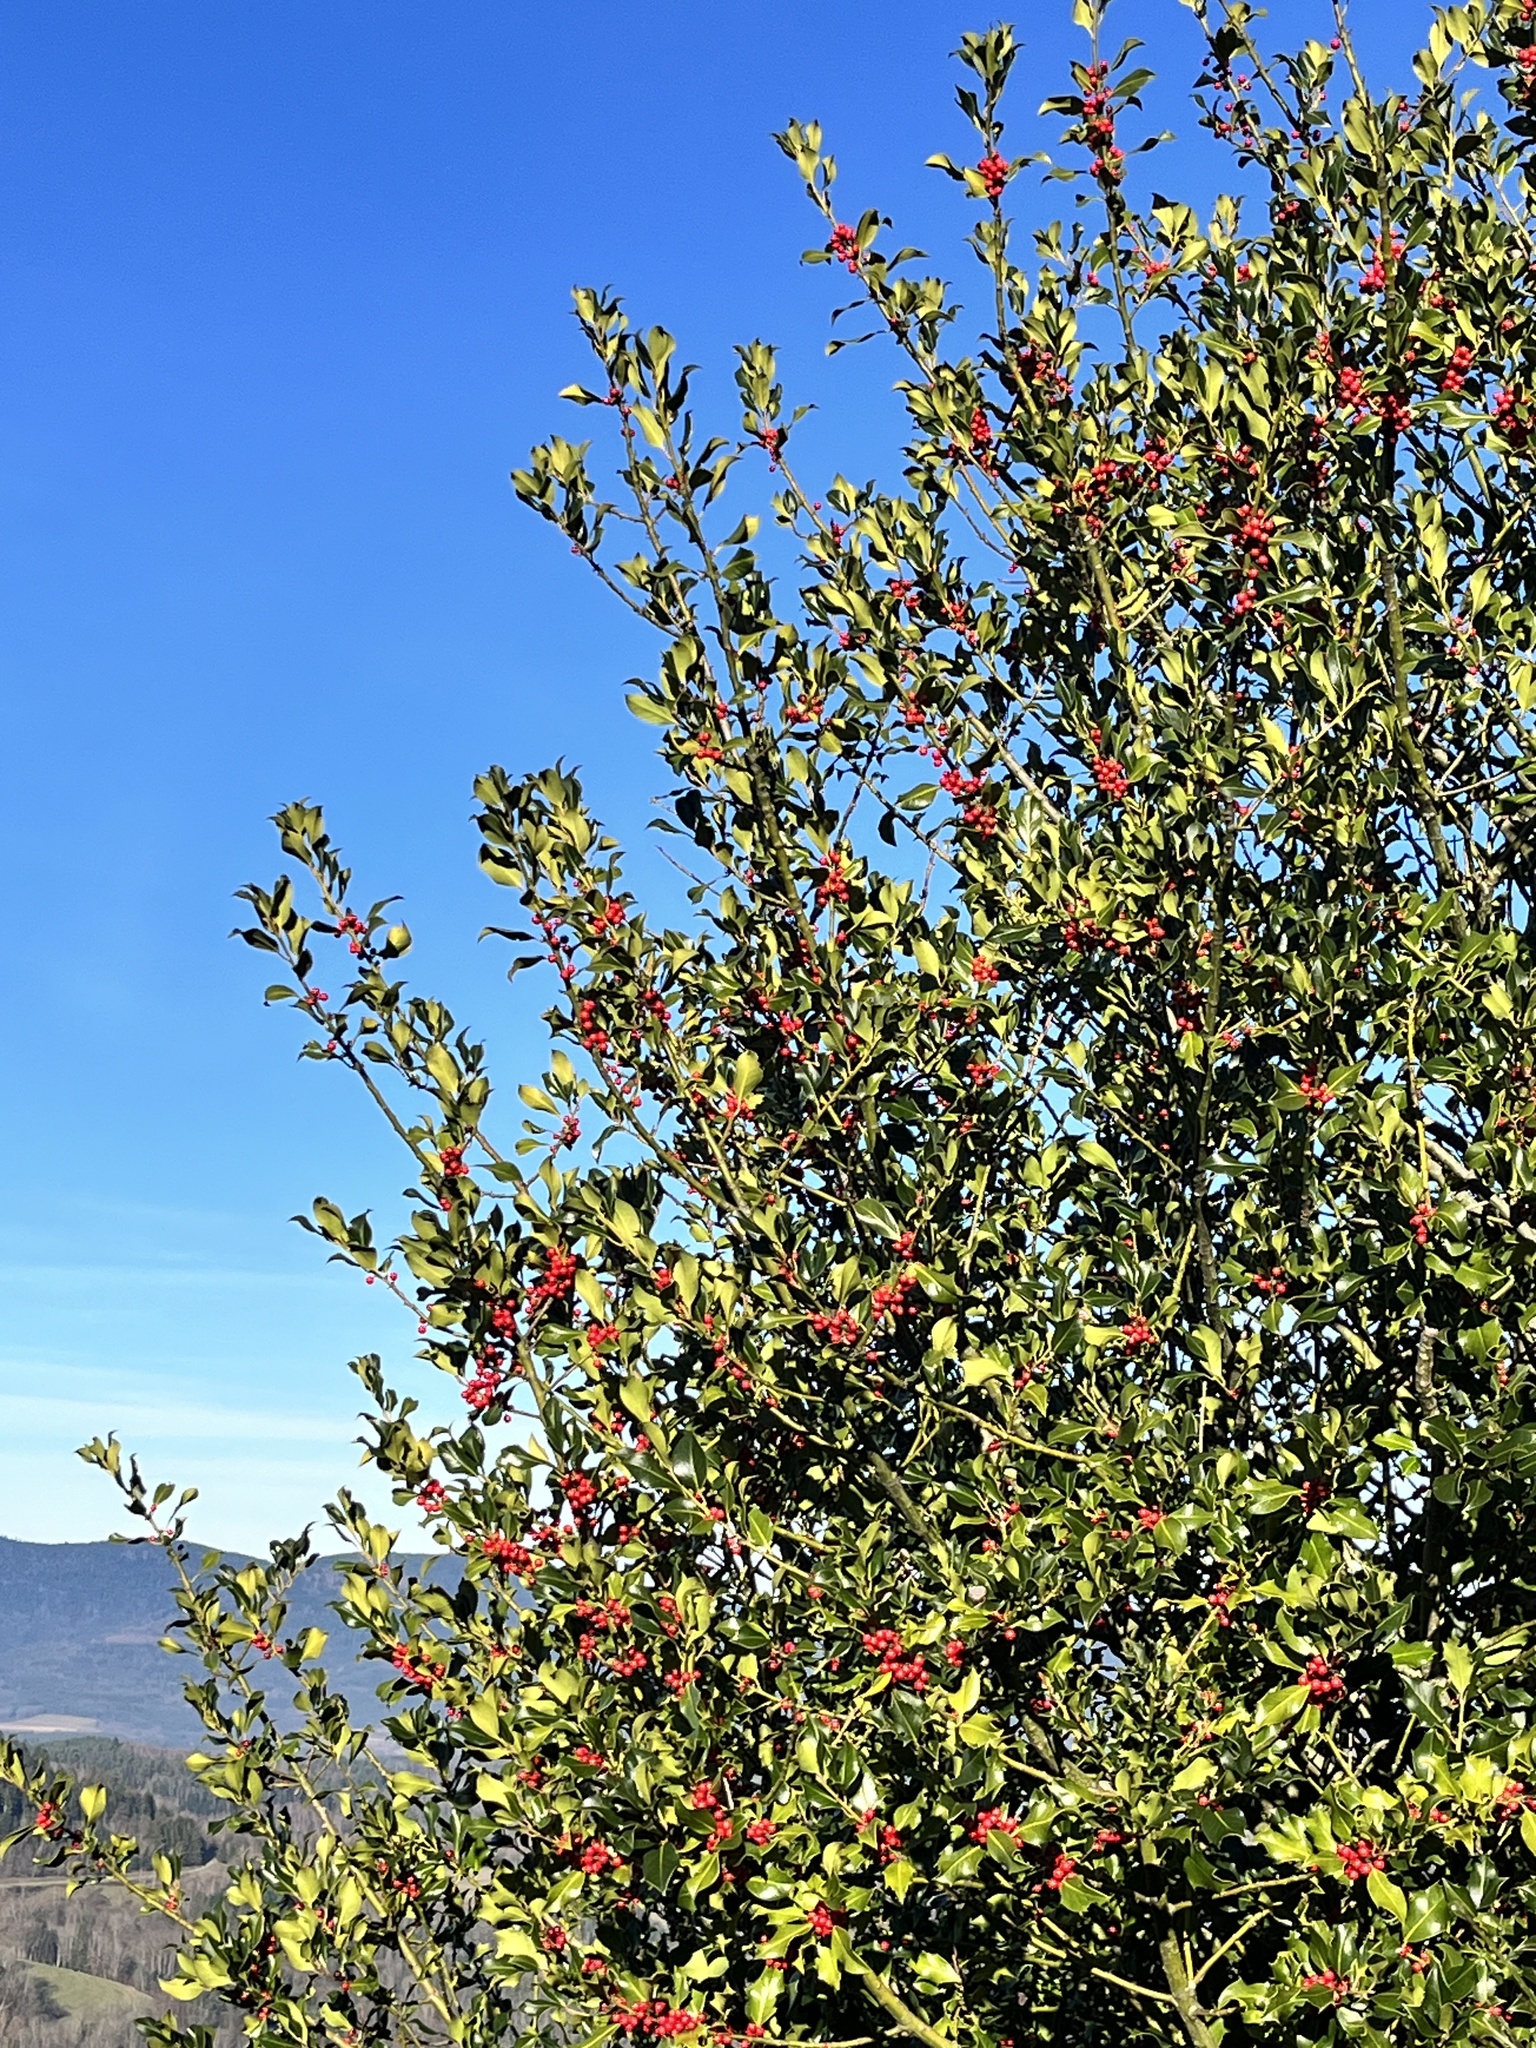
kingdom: Plantae
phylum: Tracheophyta
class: Magnoliopsida
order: Aquifoliales
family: Aquifoliaceae
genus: Ilex
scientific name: Ilex aquifolium
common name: English holly
